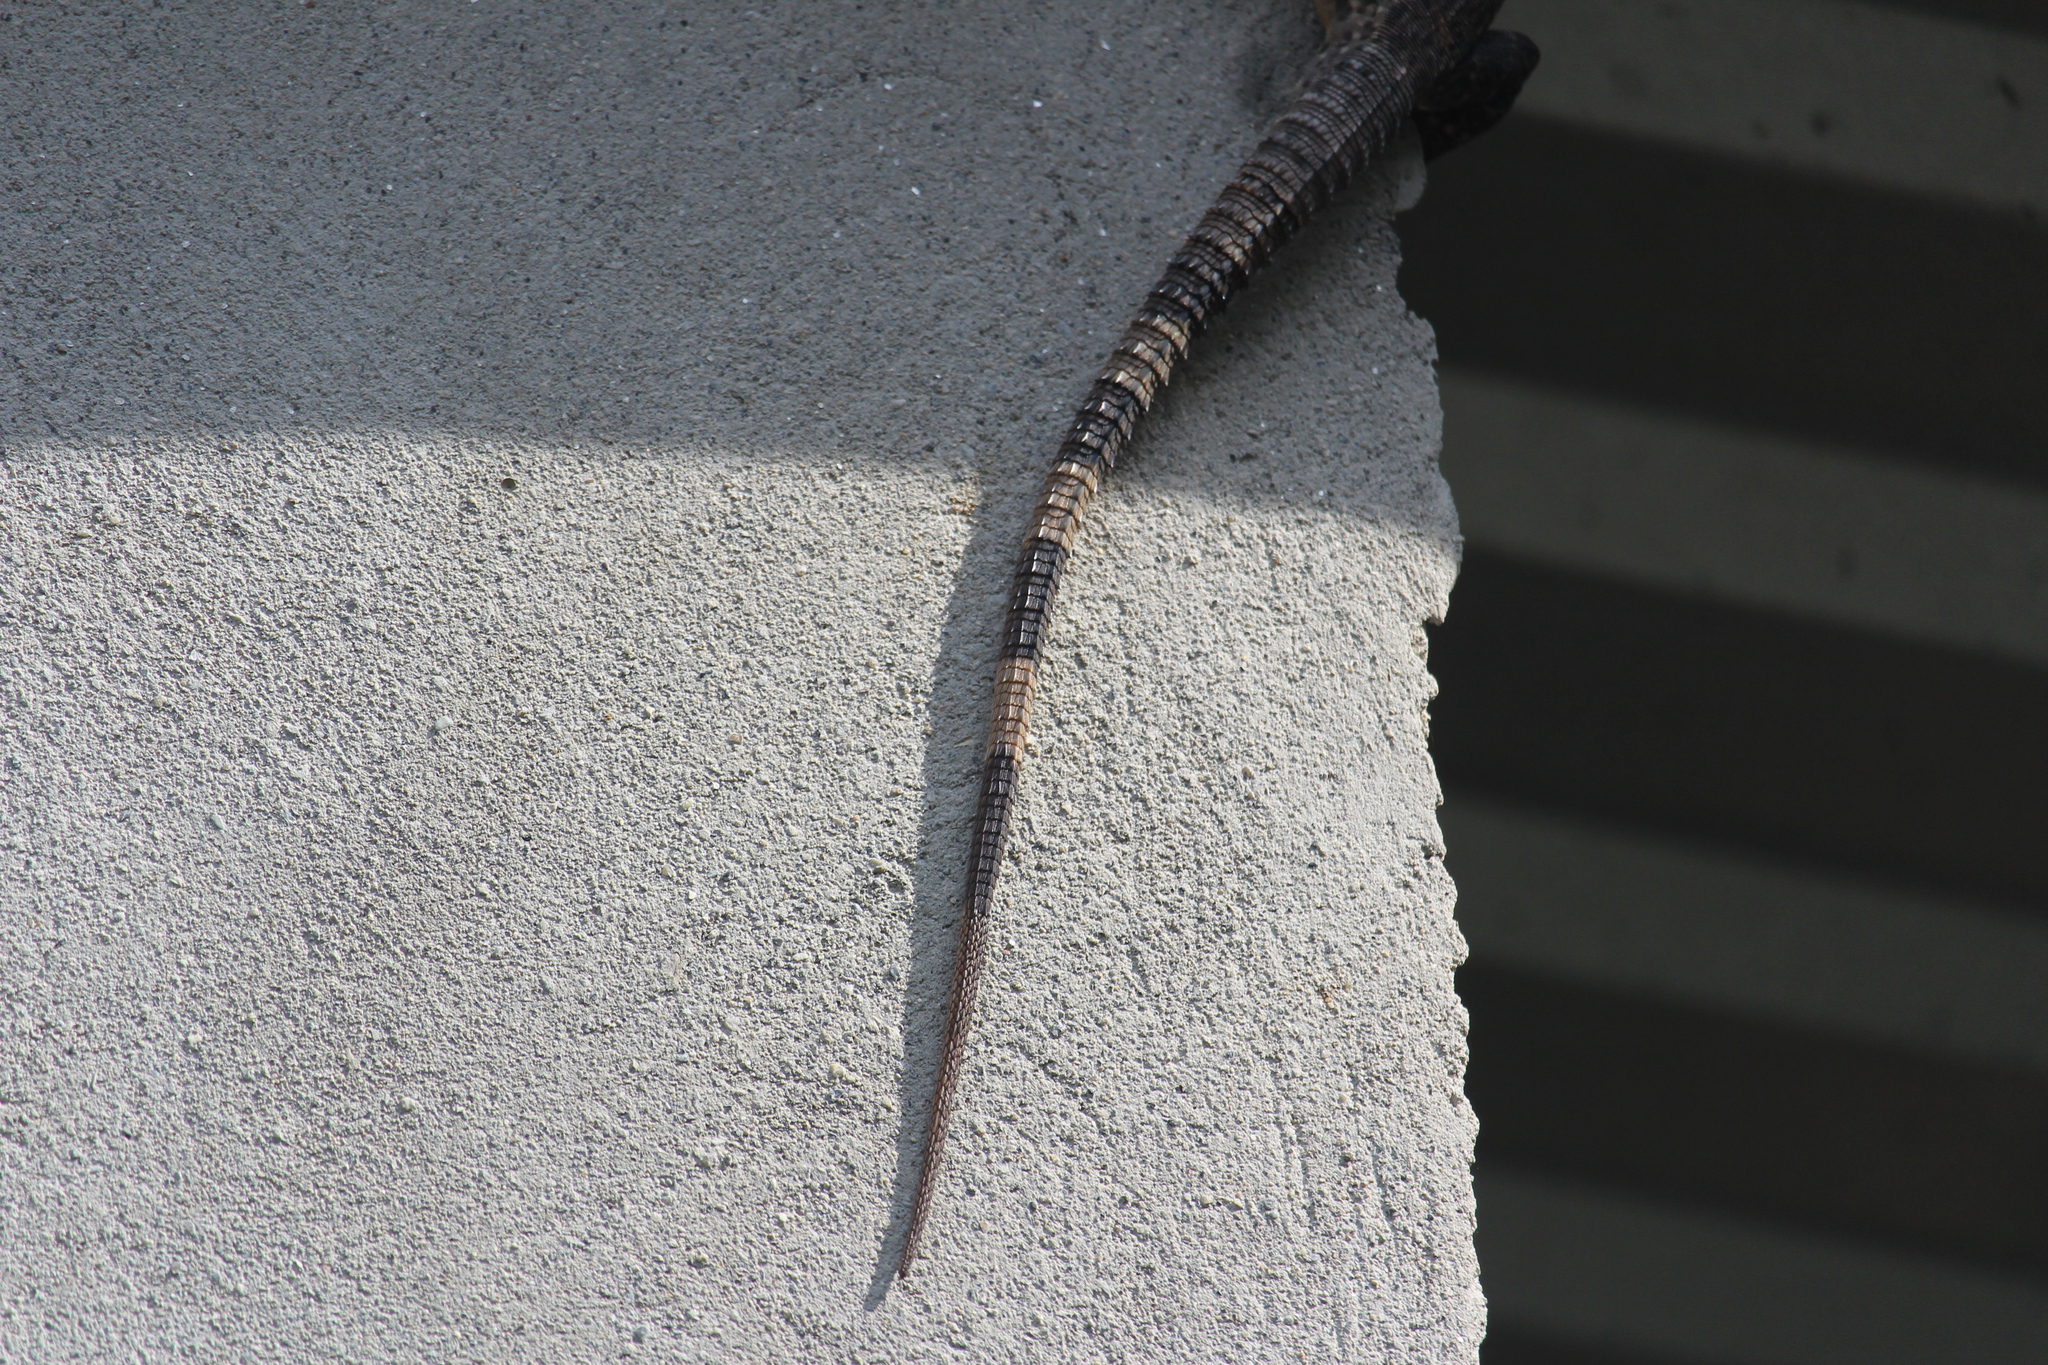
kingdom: Animalia
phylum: Chordata
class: Squamata
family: Iguanidae
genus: Ctenosaura
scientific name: Ctenosaura similis
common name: Black spiny-tailed iguana
